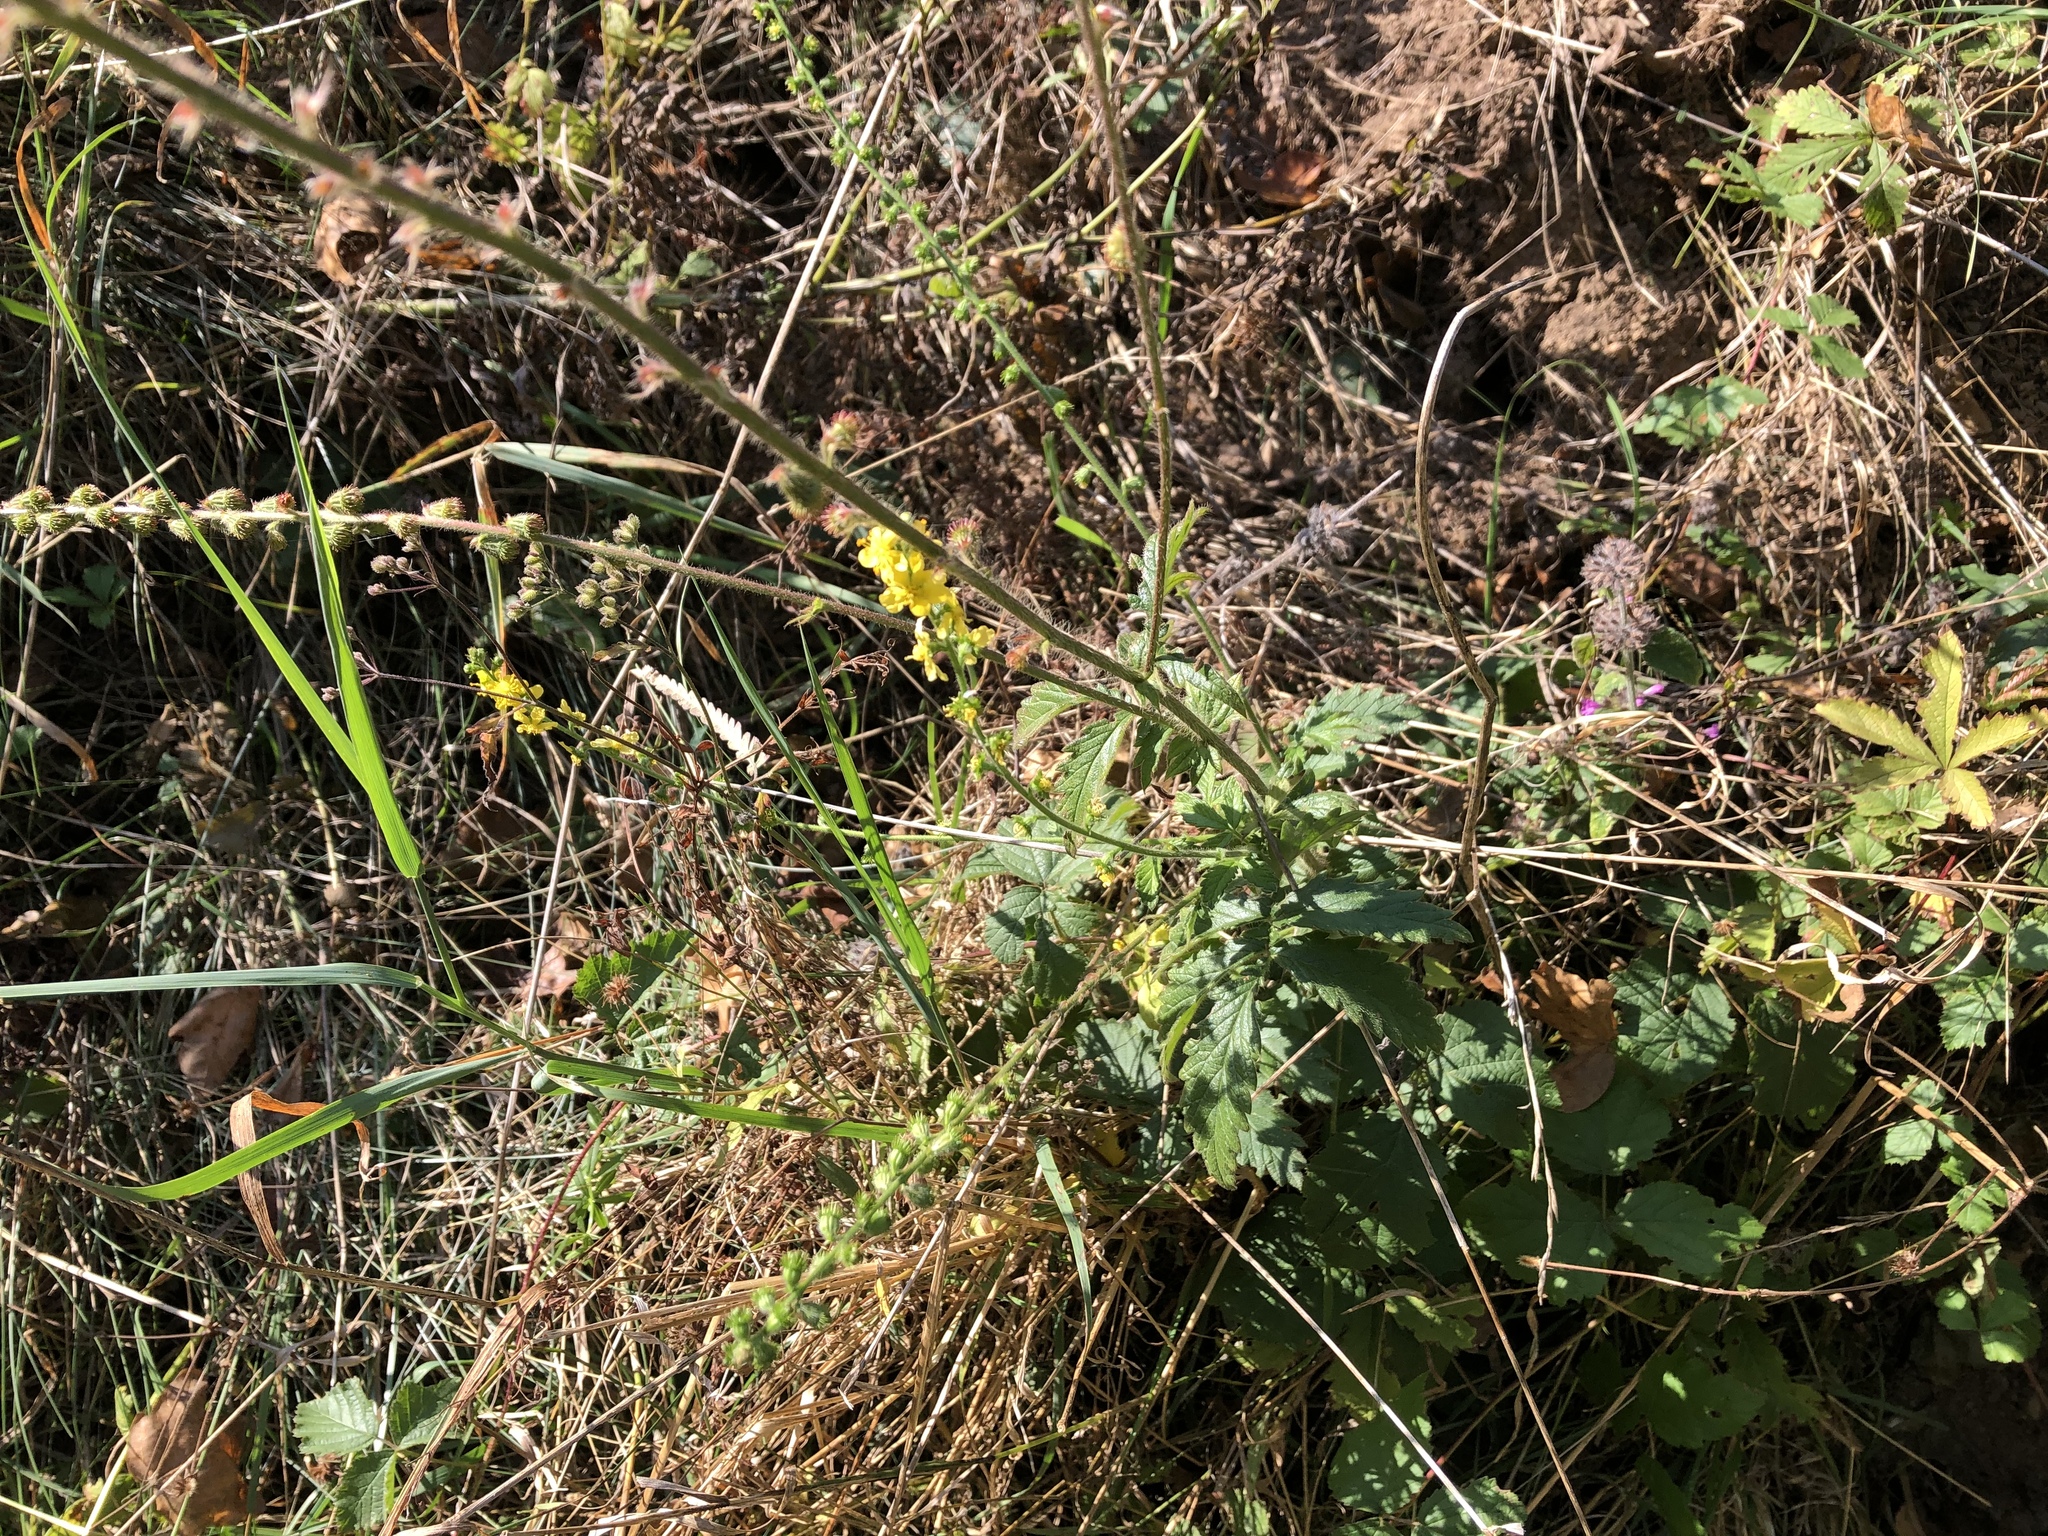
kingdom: Plantae
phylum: Tracheophyta
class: Magnoliopsida
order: Rosales
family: Rosaceae
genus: Agrimonia
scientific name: Agrimonia eupatoria
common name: Agrimony
